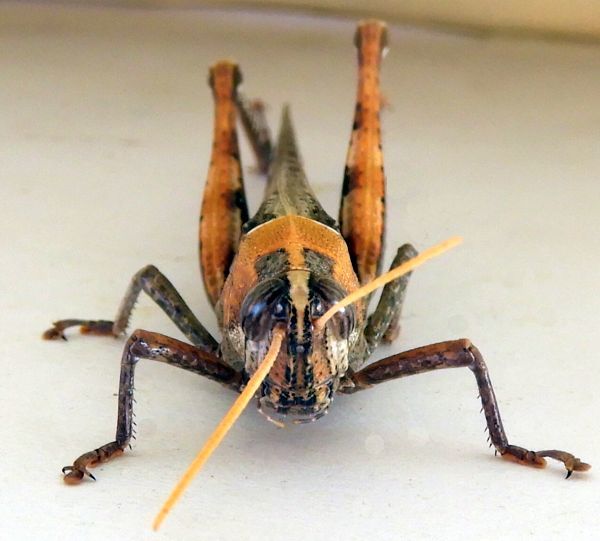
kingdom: Animalia
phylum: Arthropoda
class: Insecta
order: Orthoptera
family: Acrididae
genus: Schistocerca
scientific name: Schistocerca nitens
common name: Vagrant grasshopper
